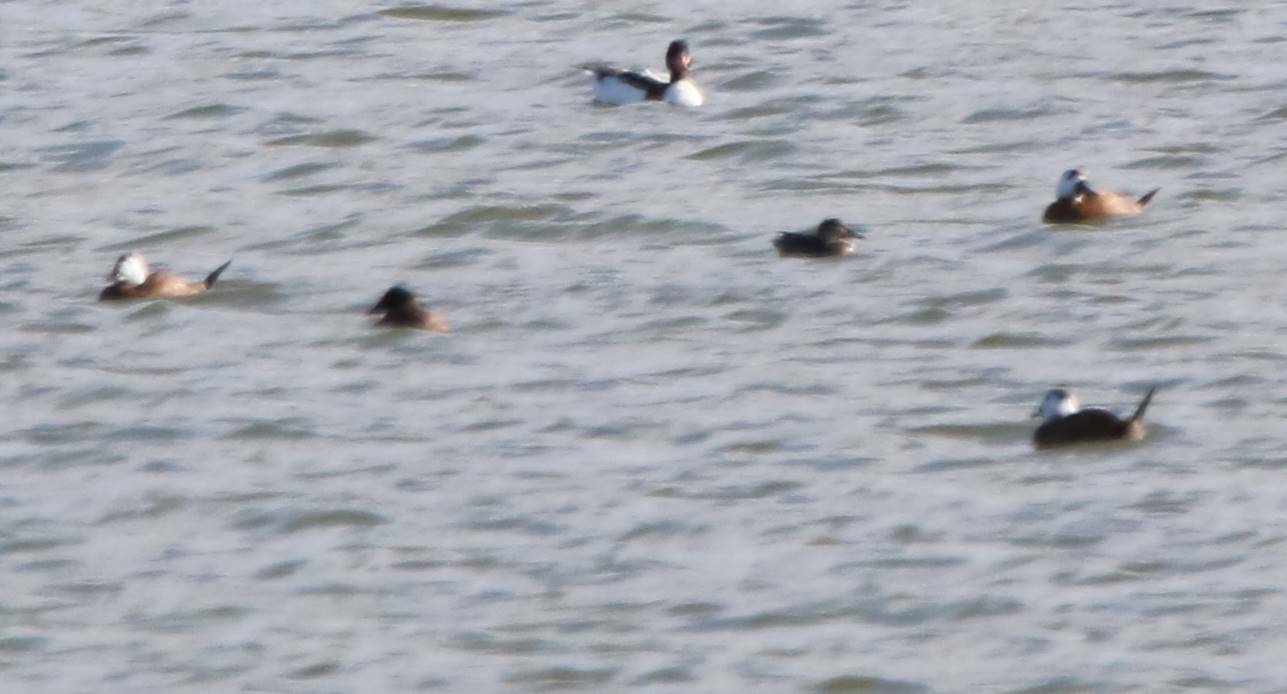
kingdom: Animalia
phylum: Chordata
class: Aves
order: Anseriformes
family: Anatidae
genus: Oxyura
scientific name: Oxyura leucocephala
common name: White-headed duck
